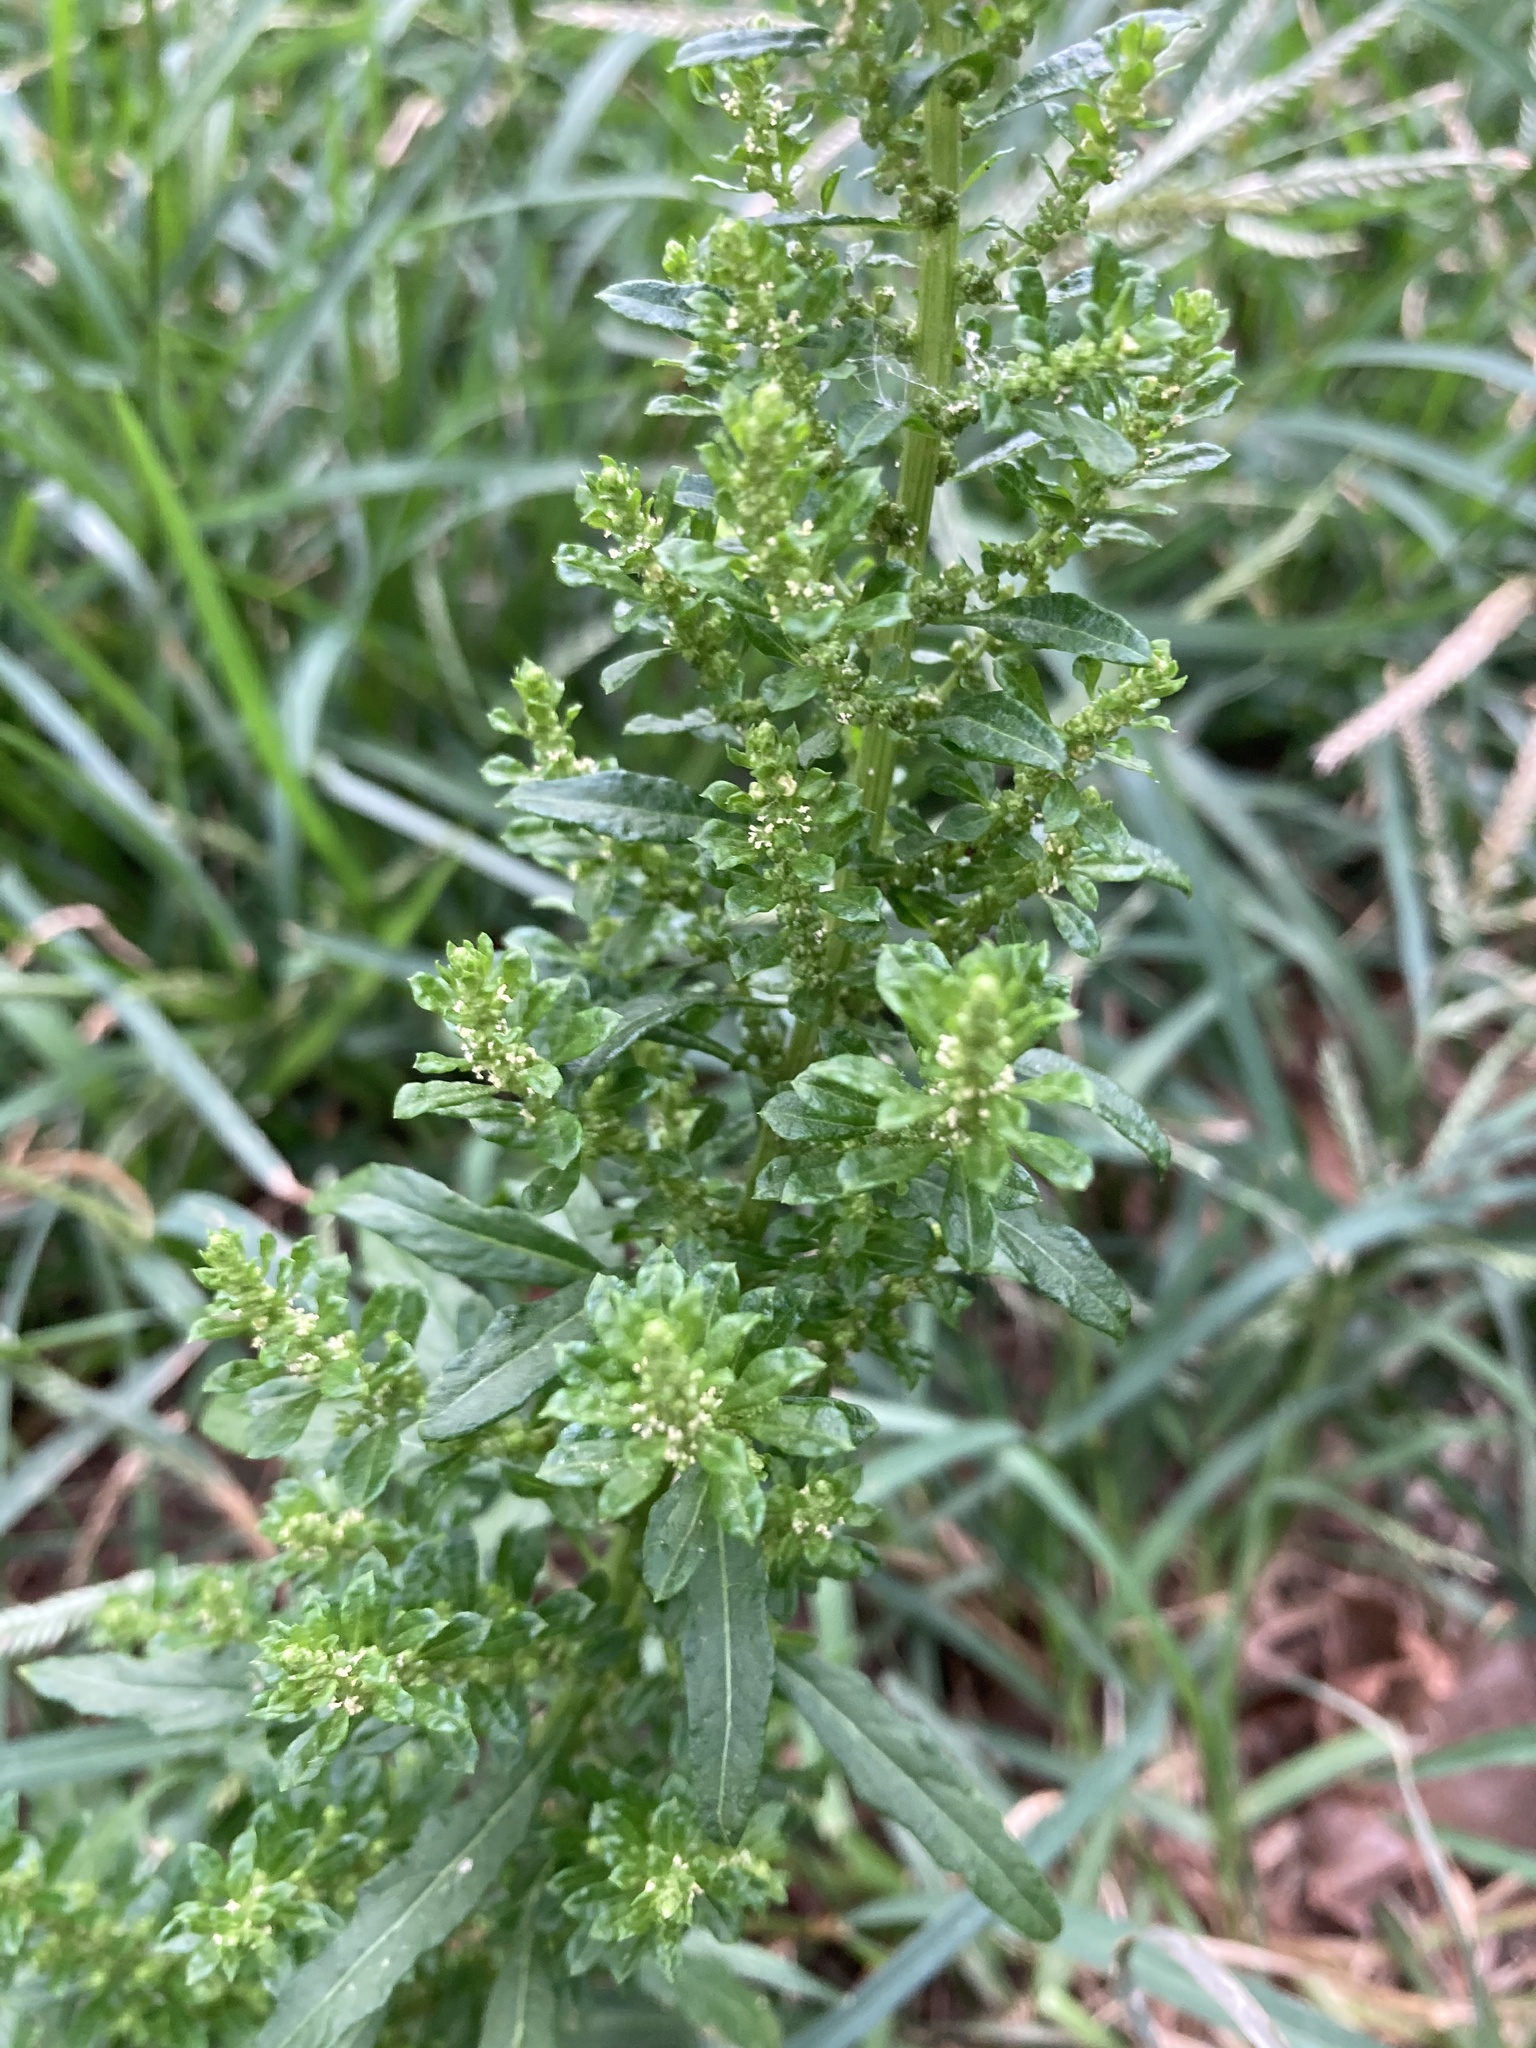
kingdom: Plantae
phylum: Tracheophyta
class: Magnoliopsida
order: Caryophyllales
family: Amaranthaceae
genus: Dysphania
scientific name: Dysphania ambrosioides
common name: Wormseed
